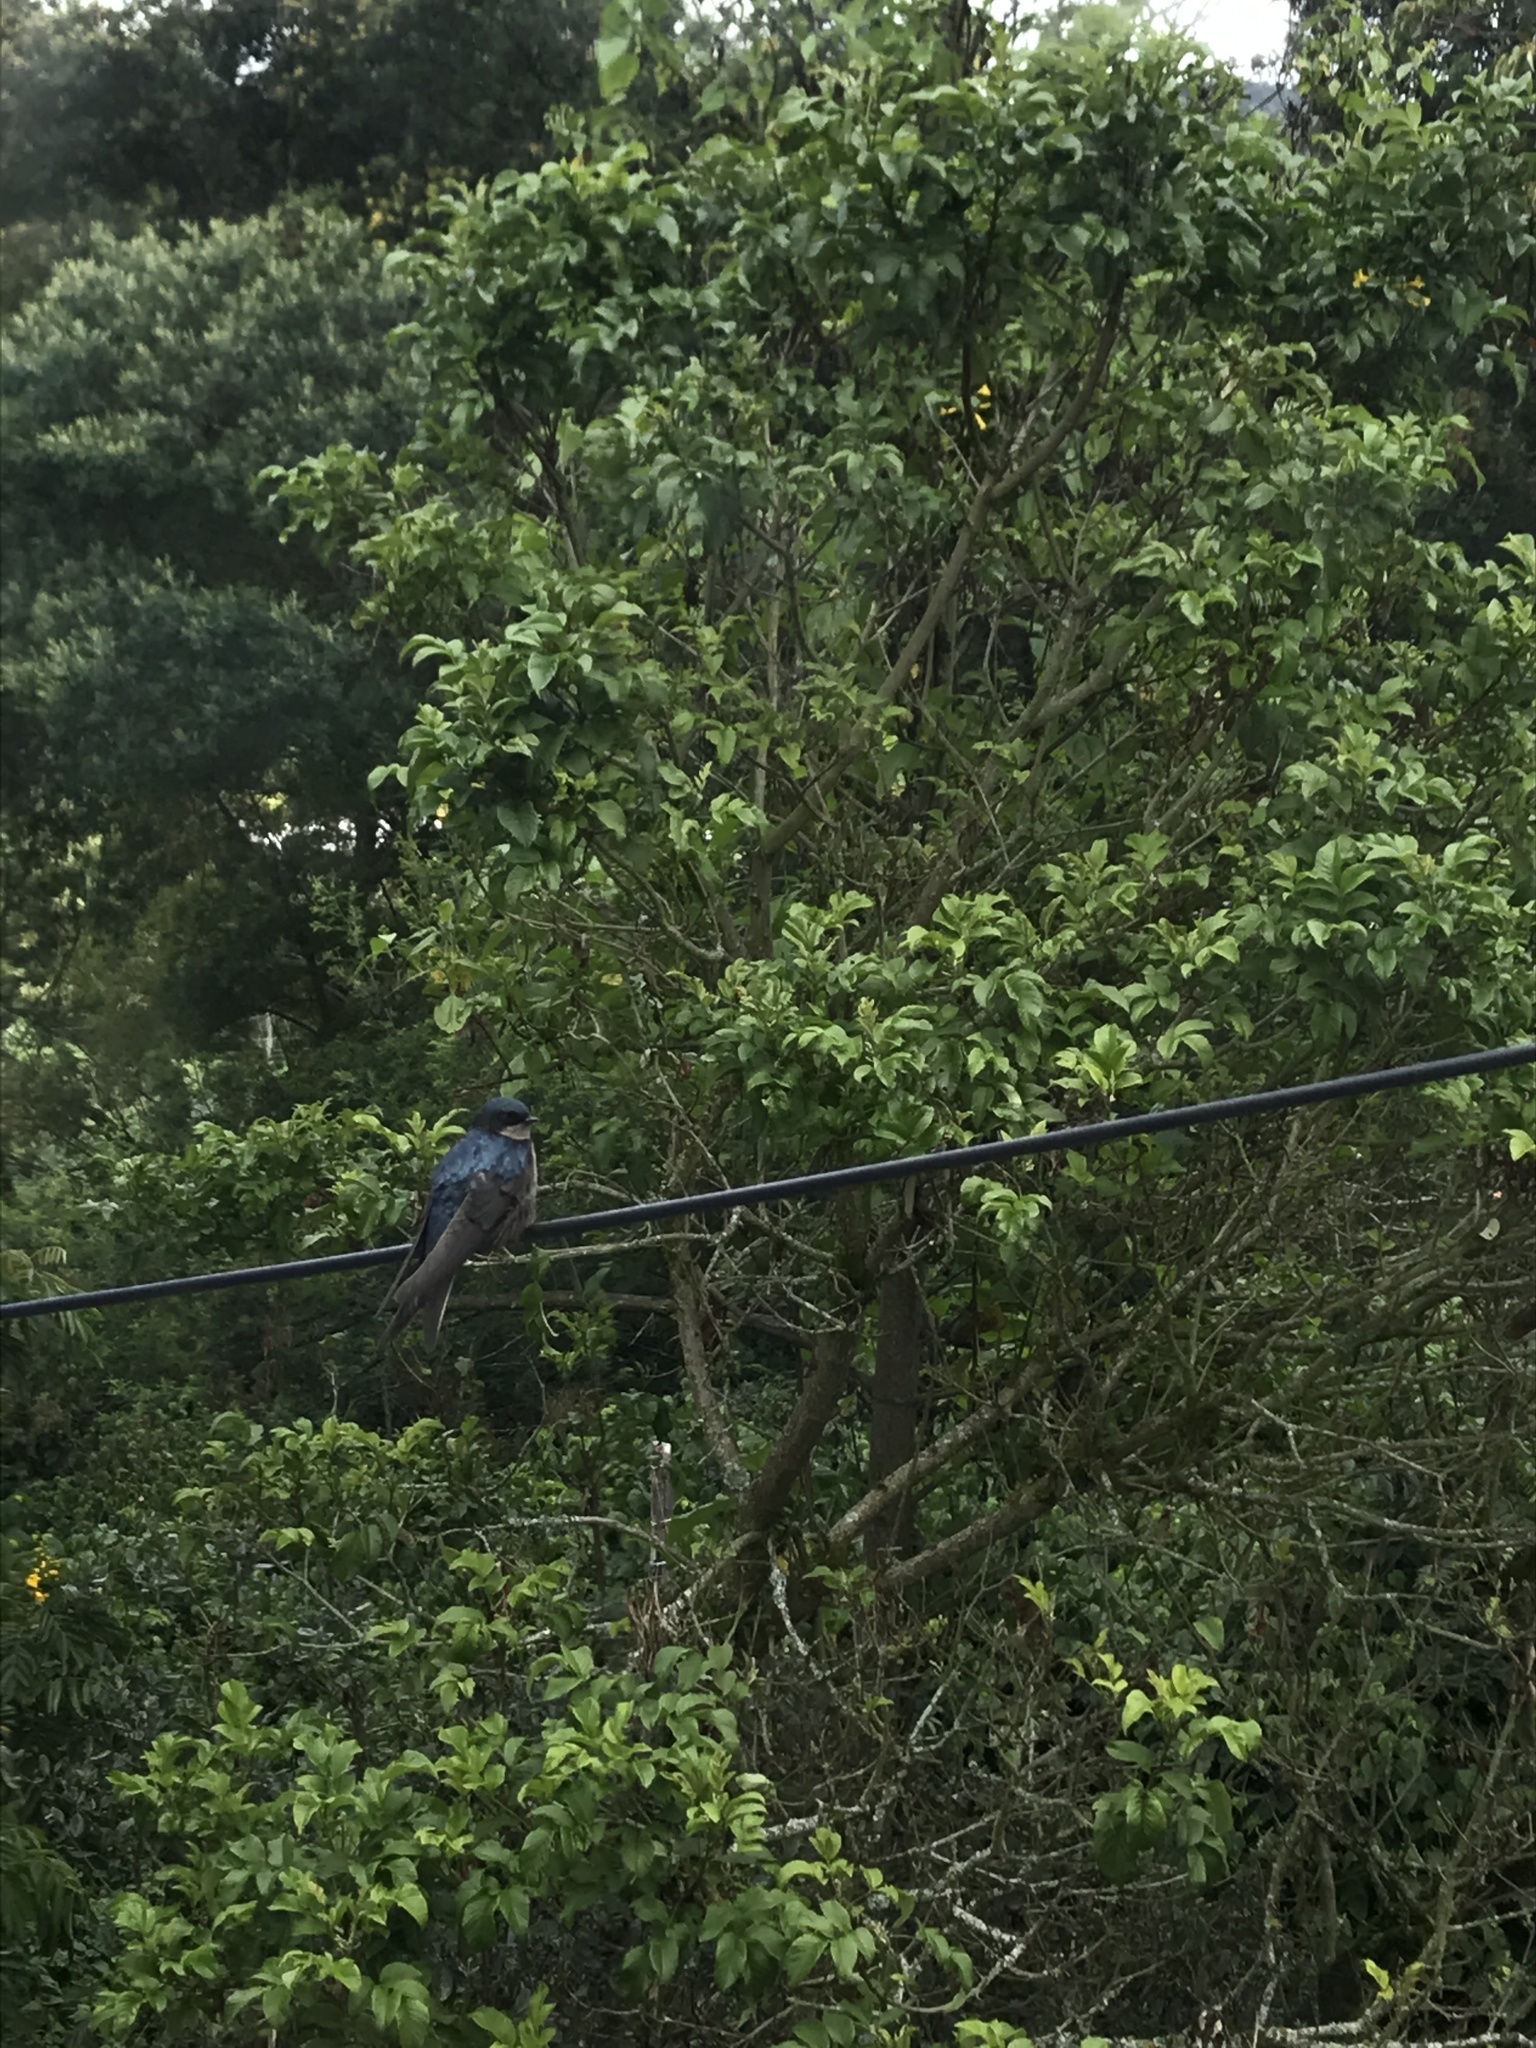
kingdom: Animalia
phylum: Chordata
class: Aves
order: Passeriformes
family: Hirundinidae
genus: Notiochelidon
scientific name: Notiochelidon murina
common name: Brown-bellied swallow
